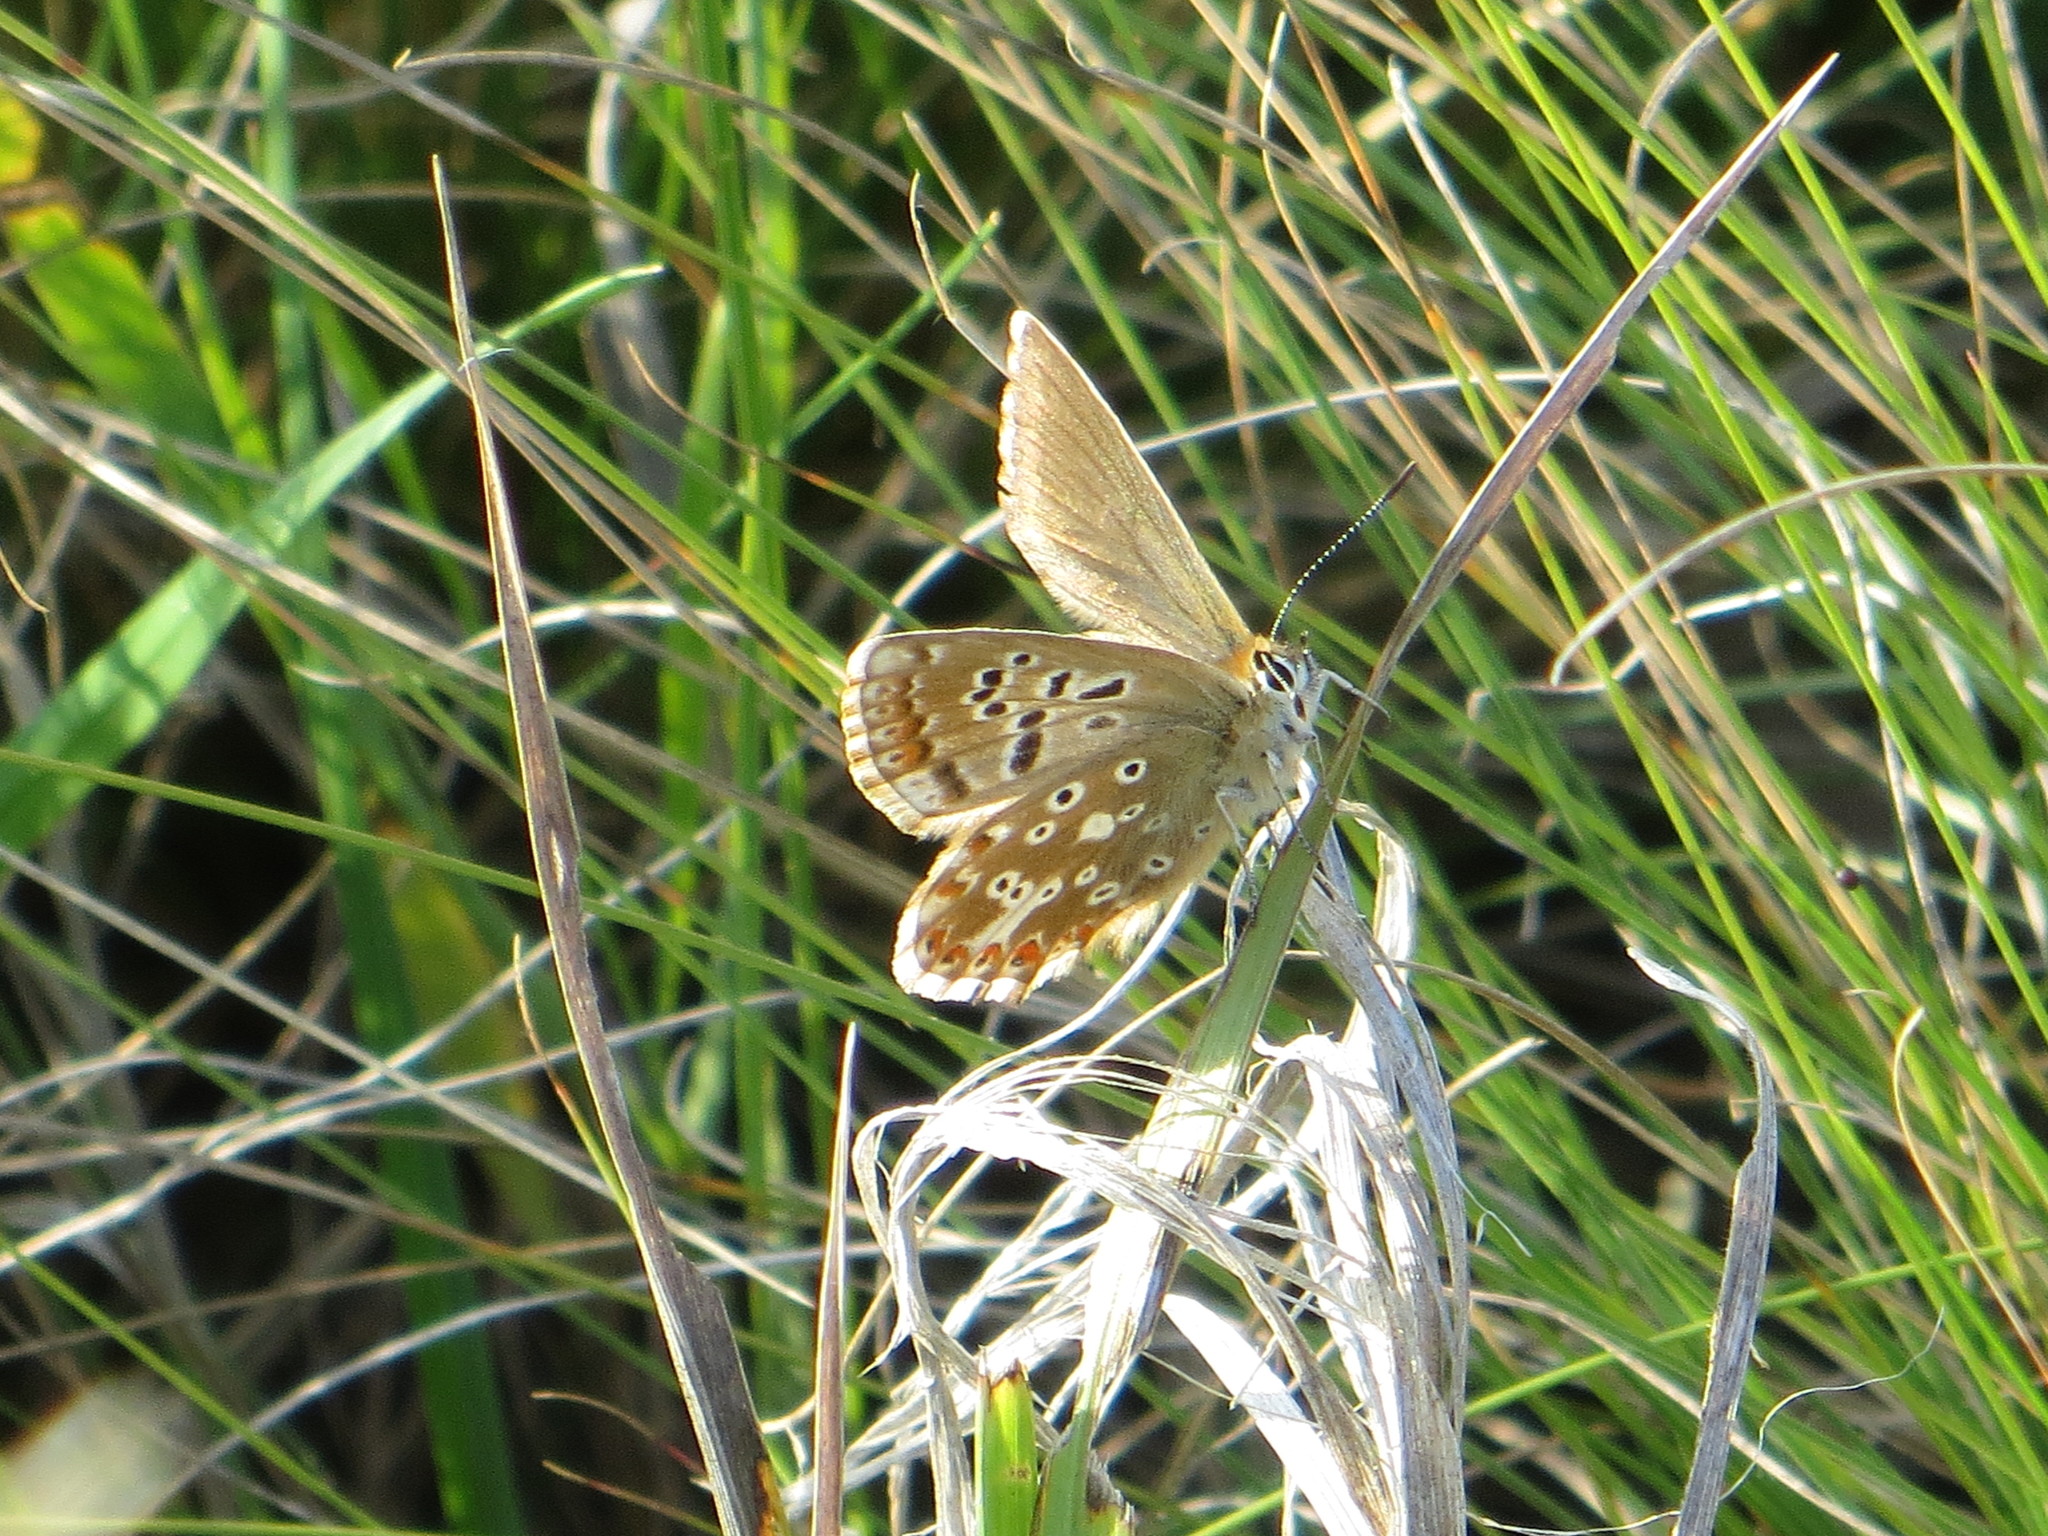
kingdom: Animalia
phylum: Arthropoda
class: Insecta
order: Lepidoptera
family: Lycaenidae
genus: Lysandra
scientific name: Lysandra coridon
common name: Chalkhill blue
